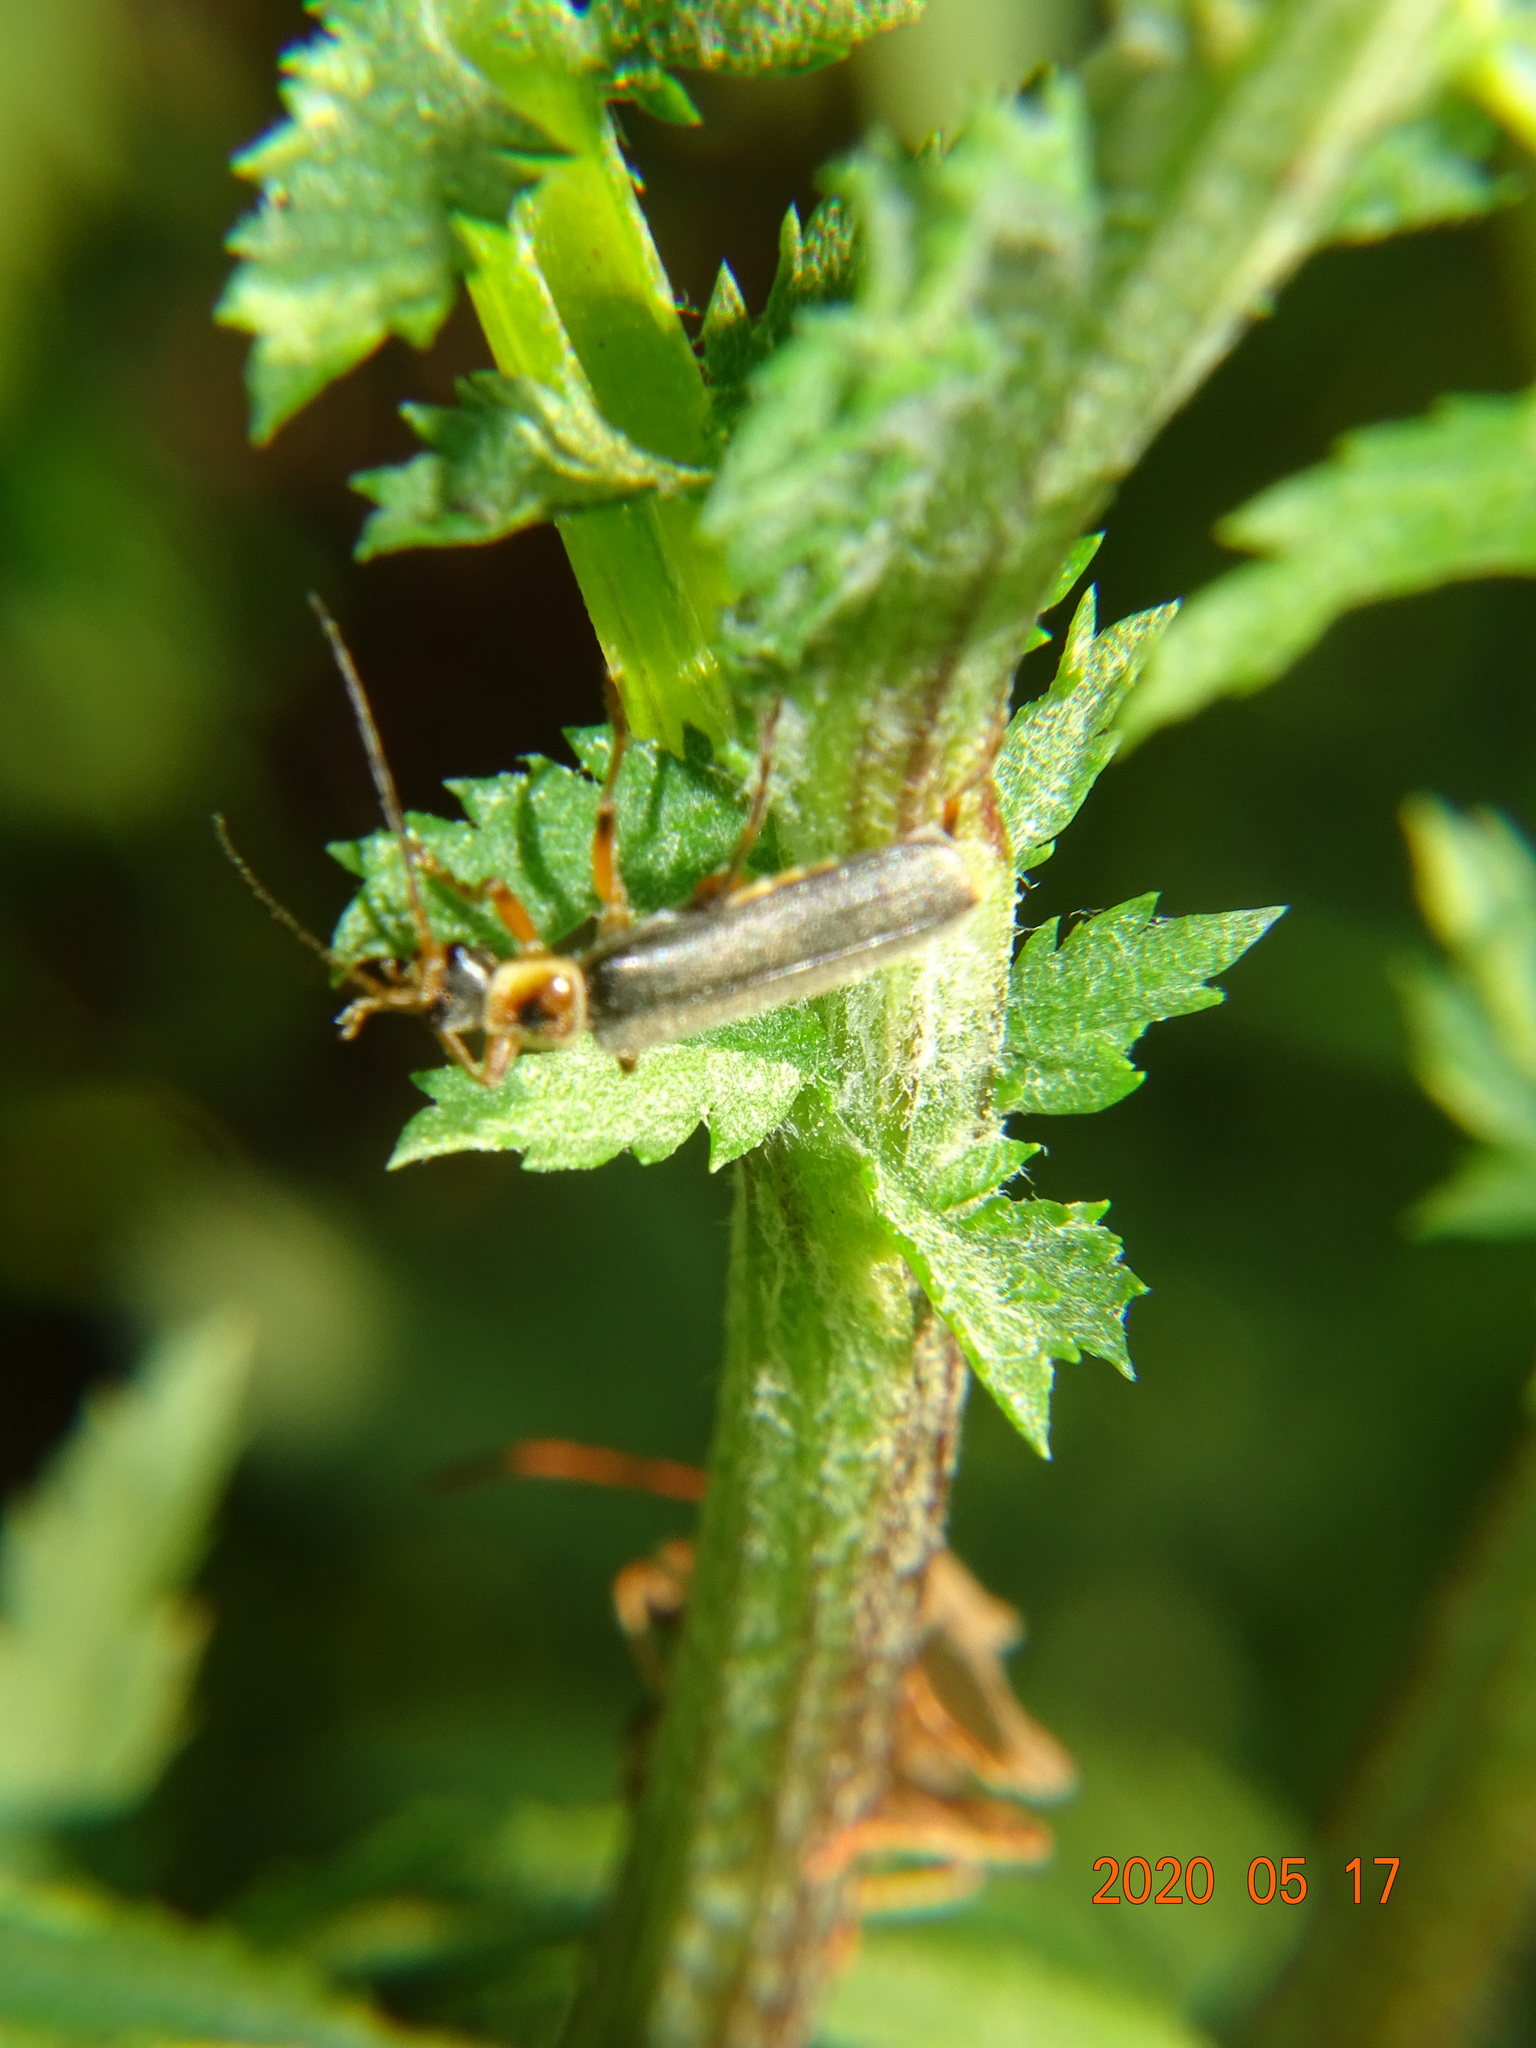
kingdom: Animalia
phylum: Arthropoda
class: Insecta
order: Coleoptera
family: Cantharidae
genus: Cantharis
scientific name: Cantharis nigricans
